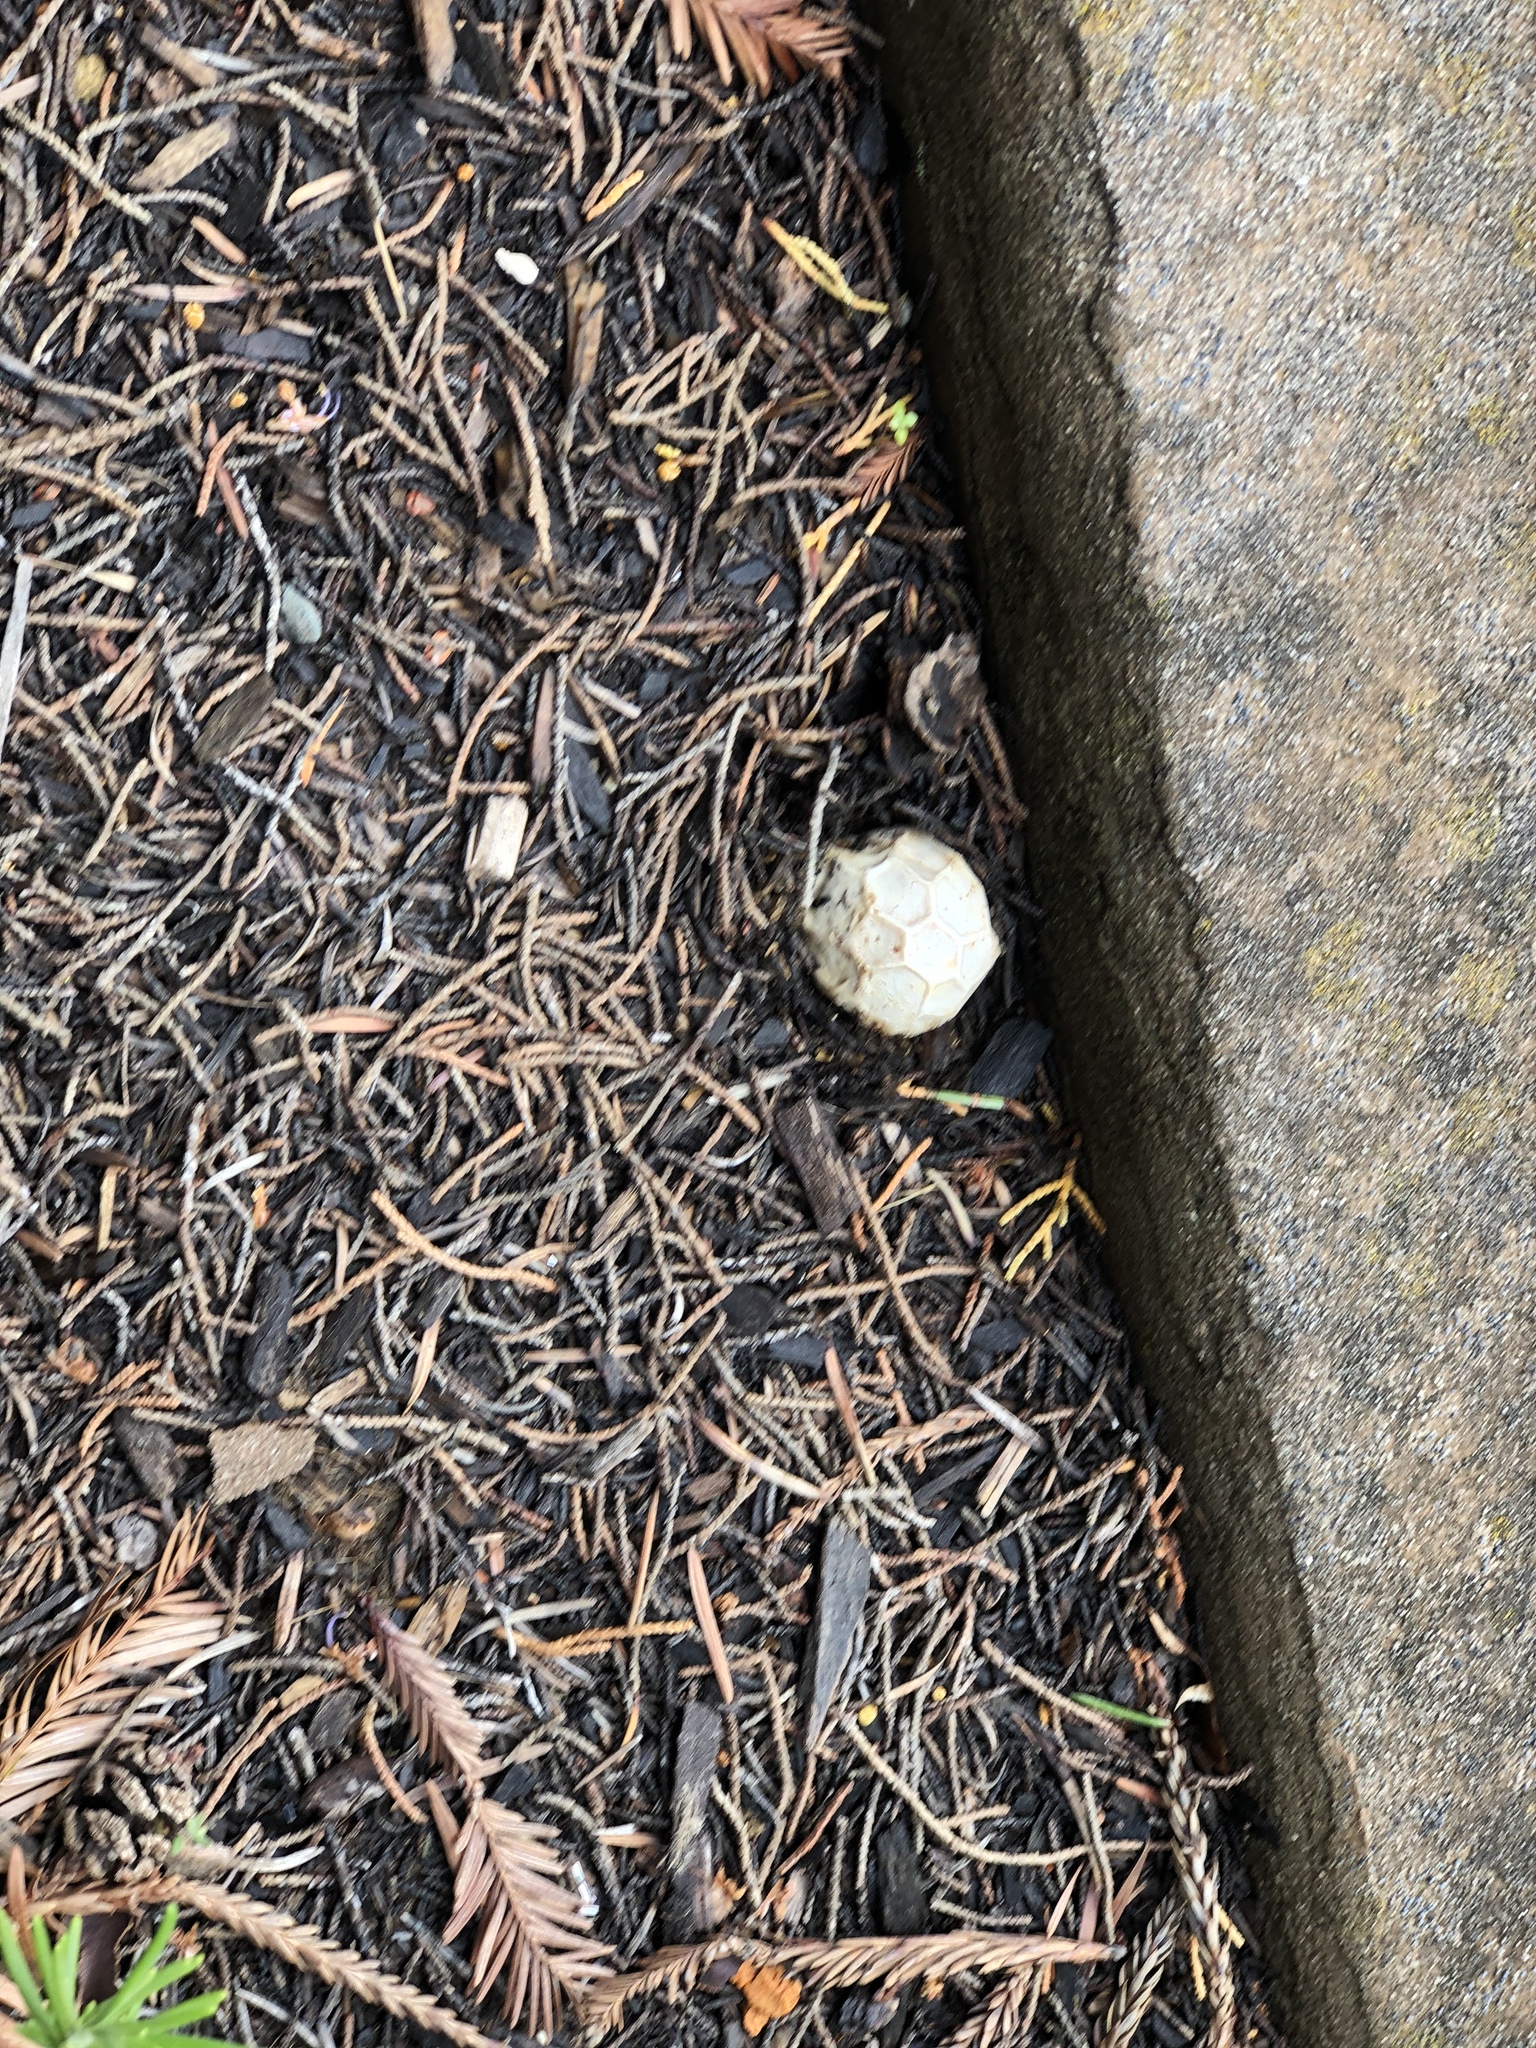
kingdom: Fungi
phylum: Basidiomycota
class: Agaricomycetes
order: Phallales
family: Phallaceae
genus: Clathrus
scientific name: Clathrus ruber
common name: Red cage
